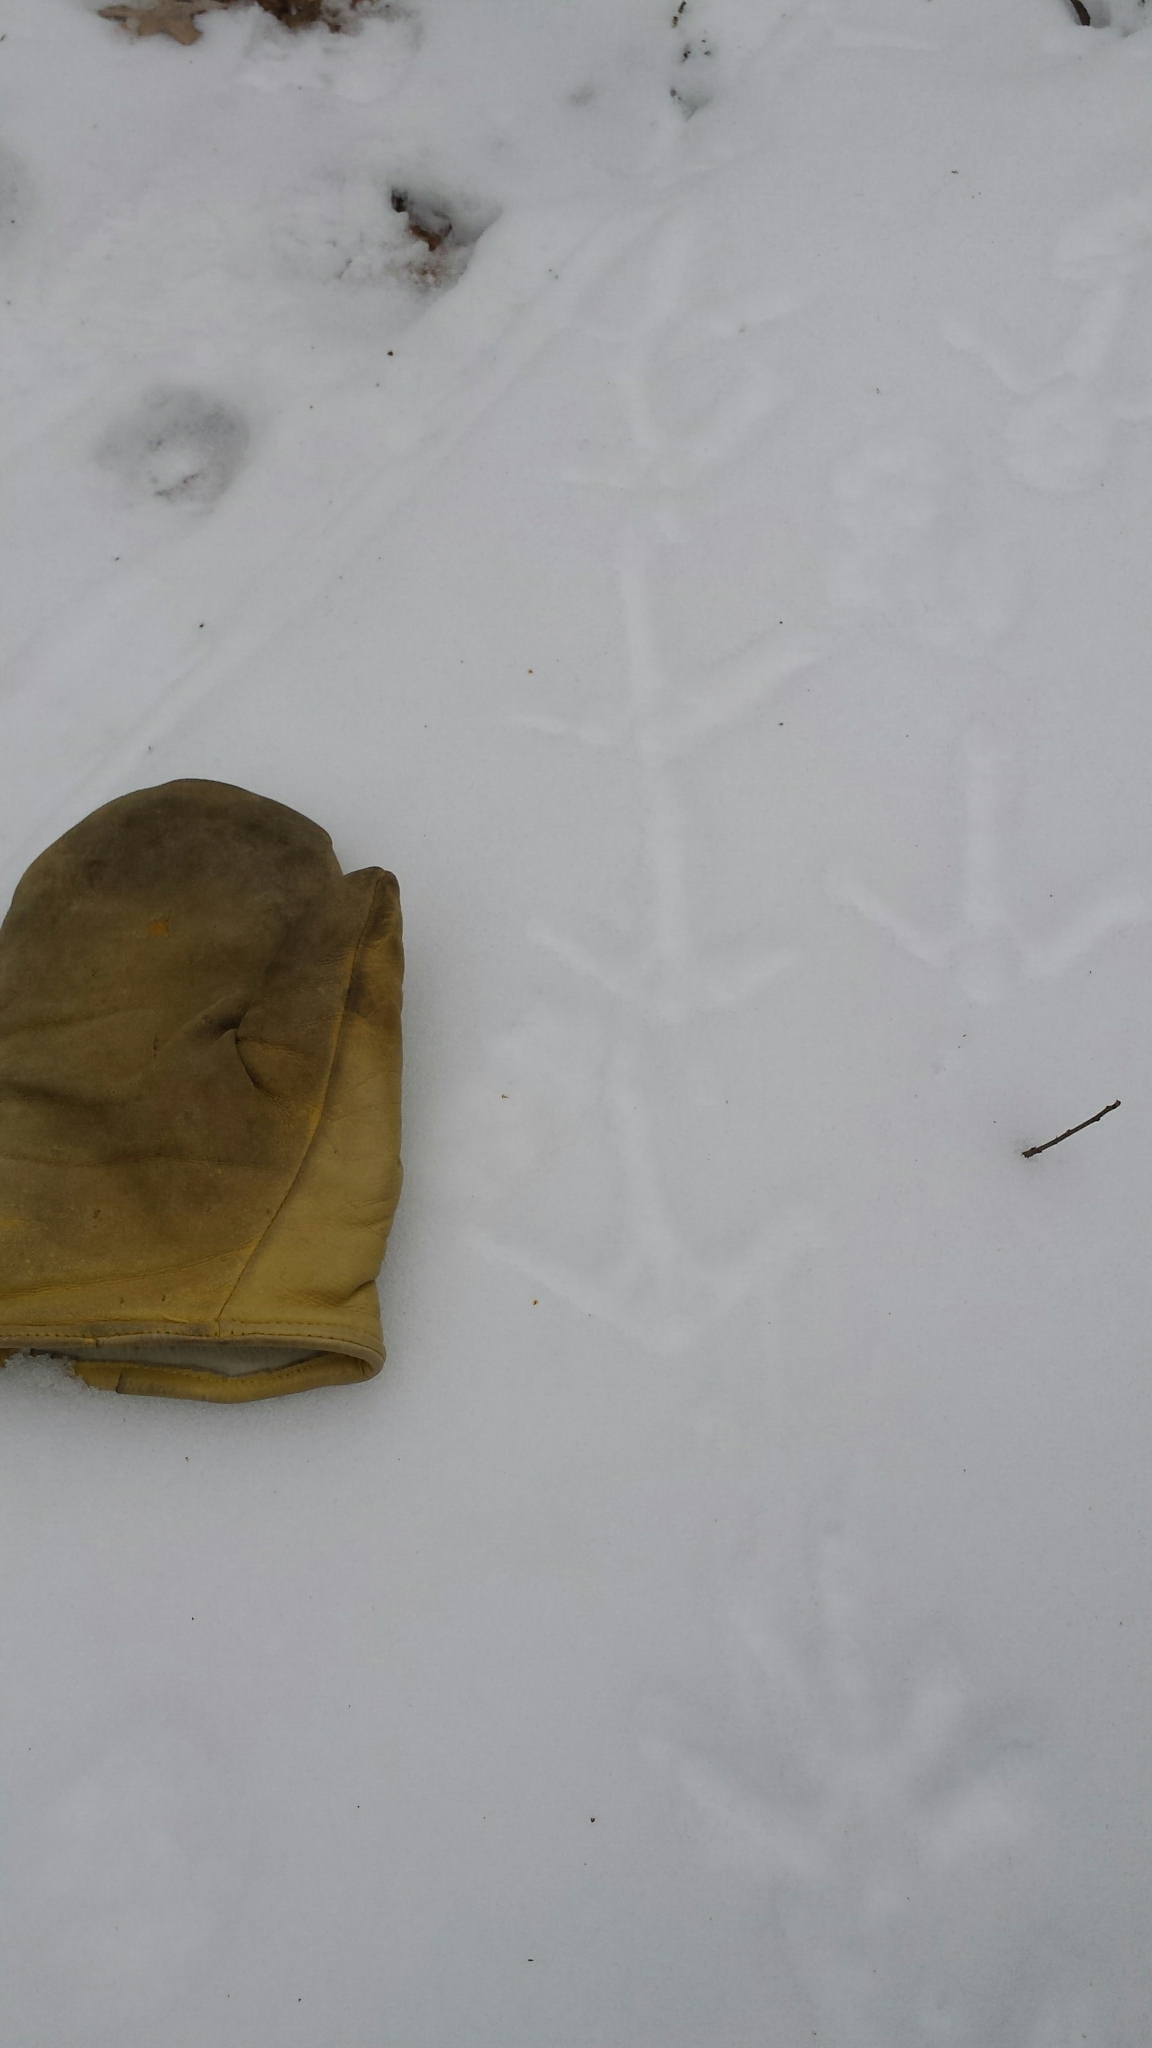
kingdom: Animalia
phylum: Chordata
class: Aves
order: Galliformes
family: Phasianidae
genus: Meleagris
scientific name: Meleagris gallopavo
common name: Wild turkey
